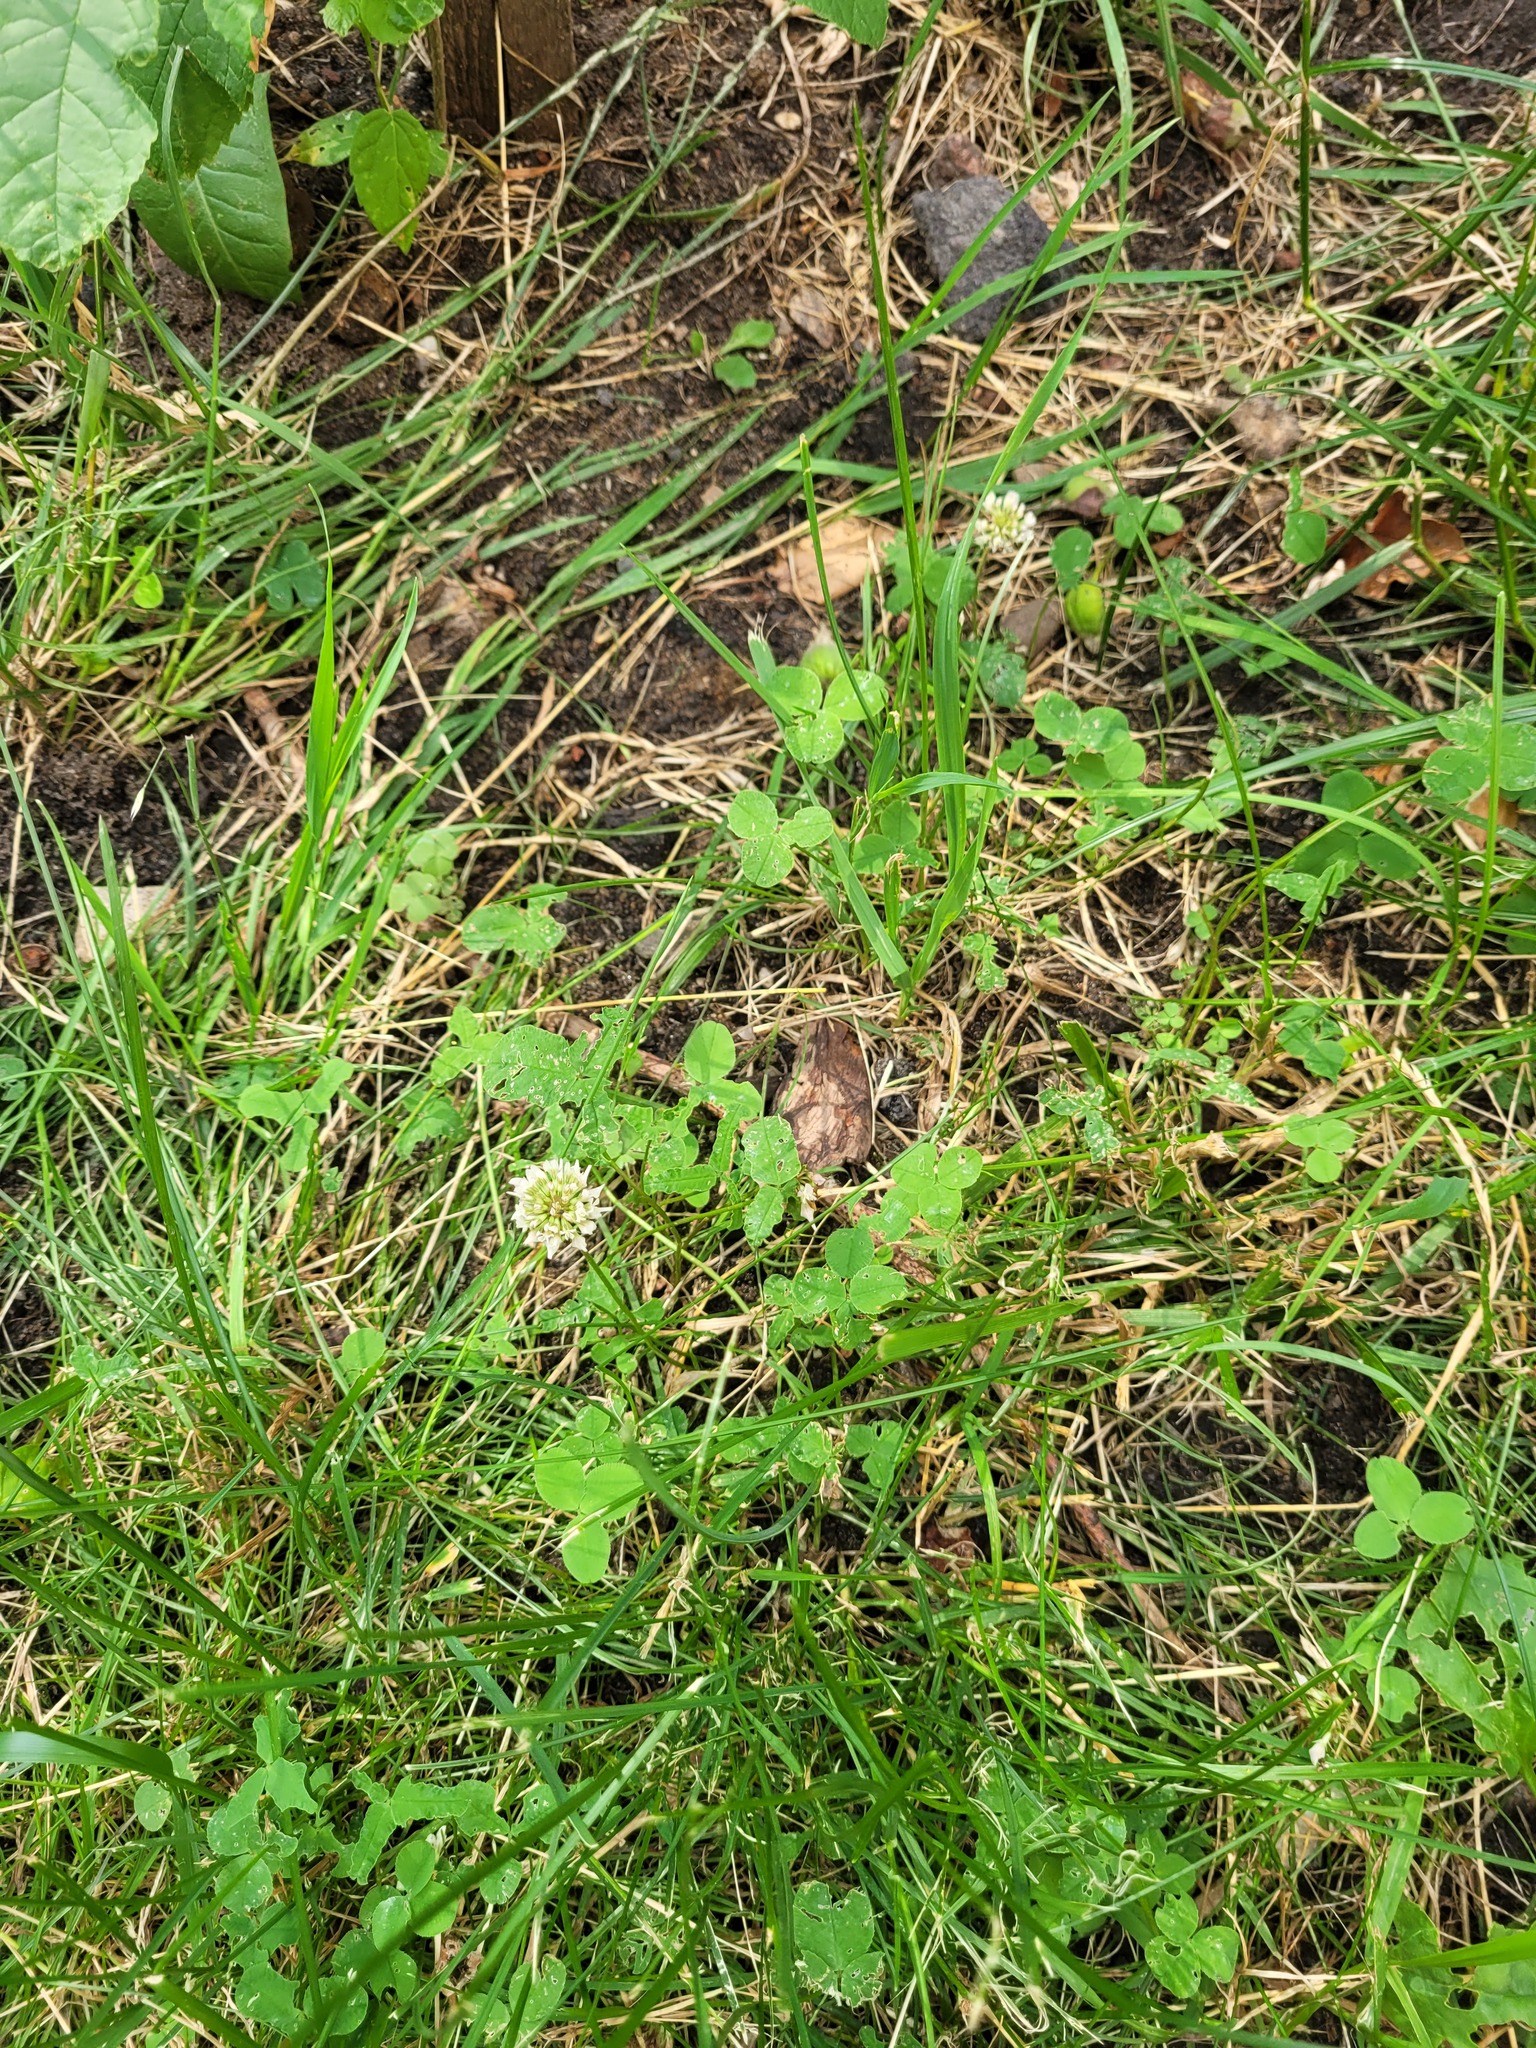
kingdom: Plantae
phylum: Tracheophyta
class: Magnoliopsida
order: Fabales
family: Fabaceae
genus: Trifolium
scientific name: Trifolium repens
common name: White clover
